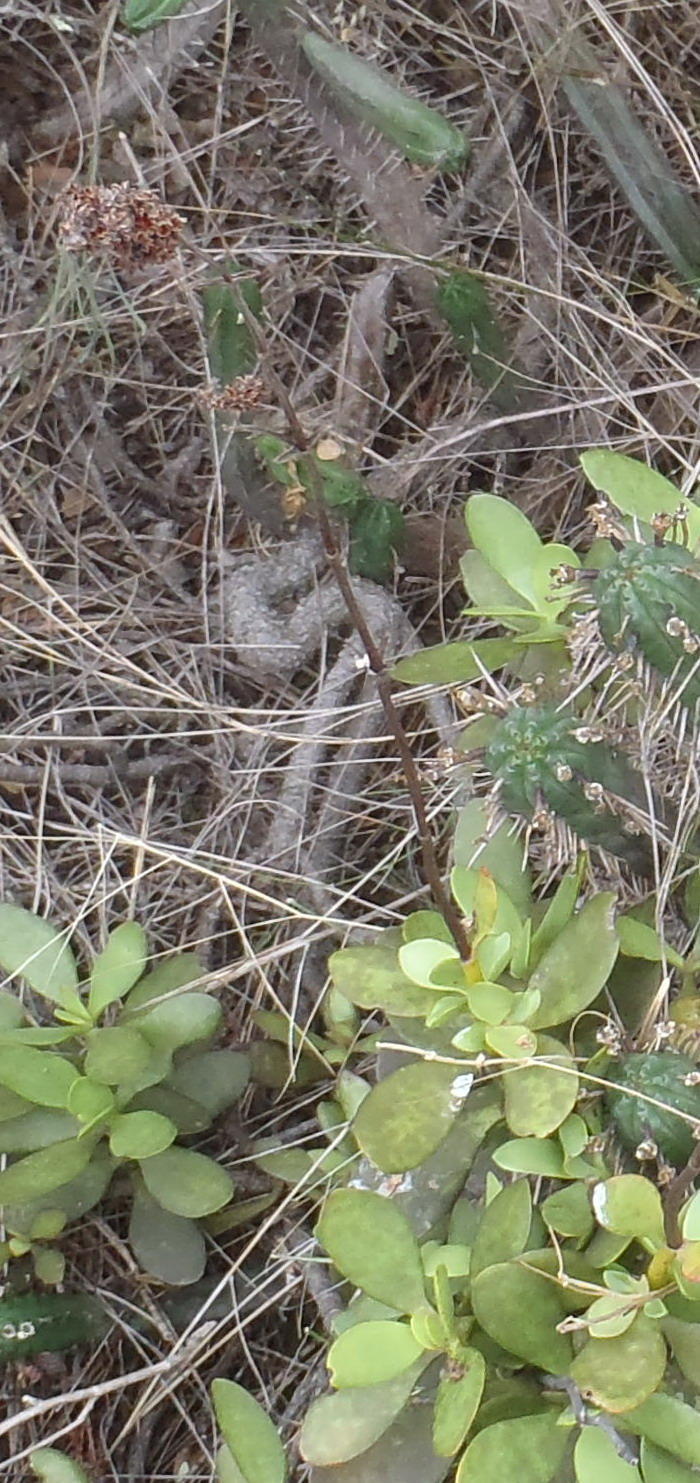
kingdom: Plantae
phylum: Tracheophyta
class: Magnoliopsida
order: Saxifragales
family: Crassulaceae
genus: Crassula
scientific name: Crassula cultrata
